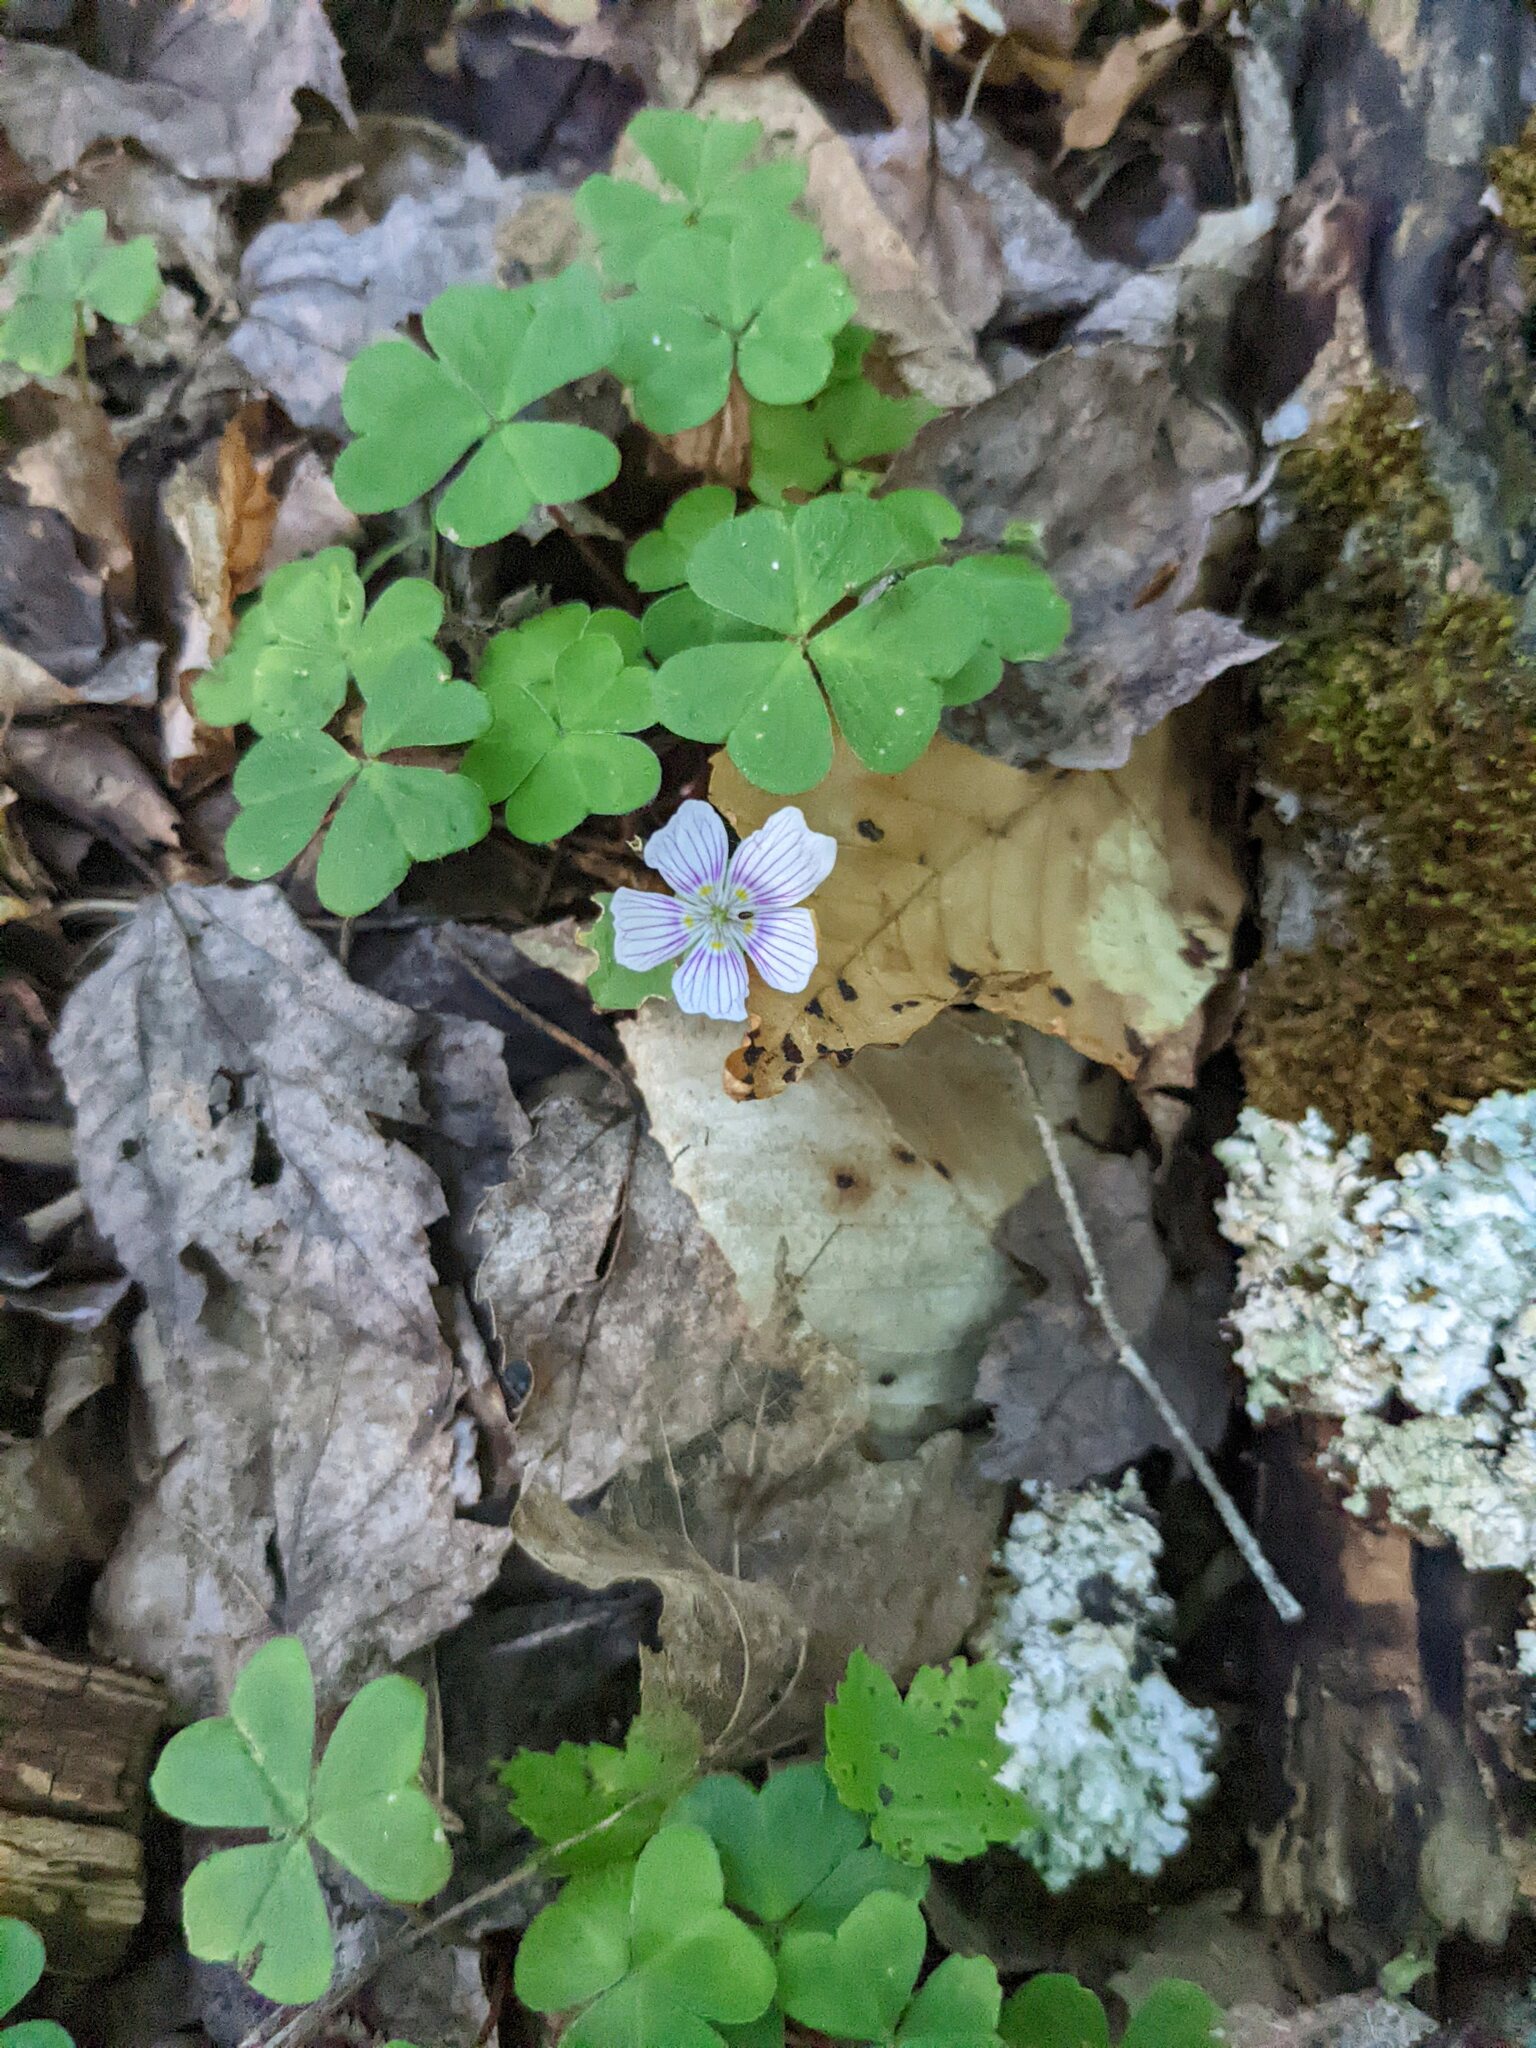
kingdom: Plantae
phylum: Tracheophyta
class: Magnoliopsida
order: Oxalidales
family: Oxalidaceae
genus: Oxalis
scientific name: Oxalis montana
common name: American wood-sorrel
